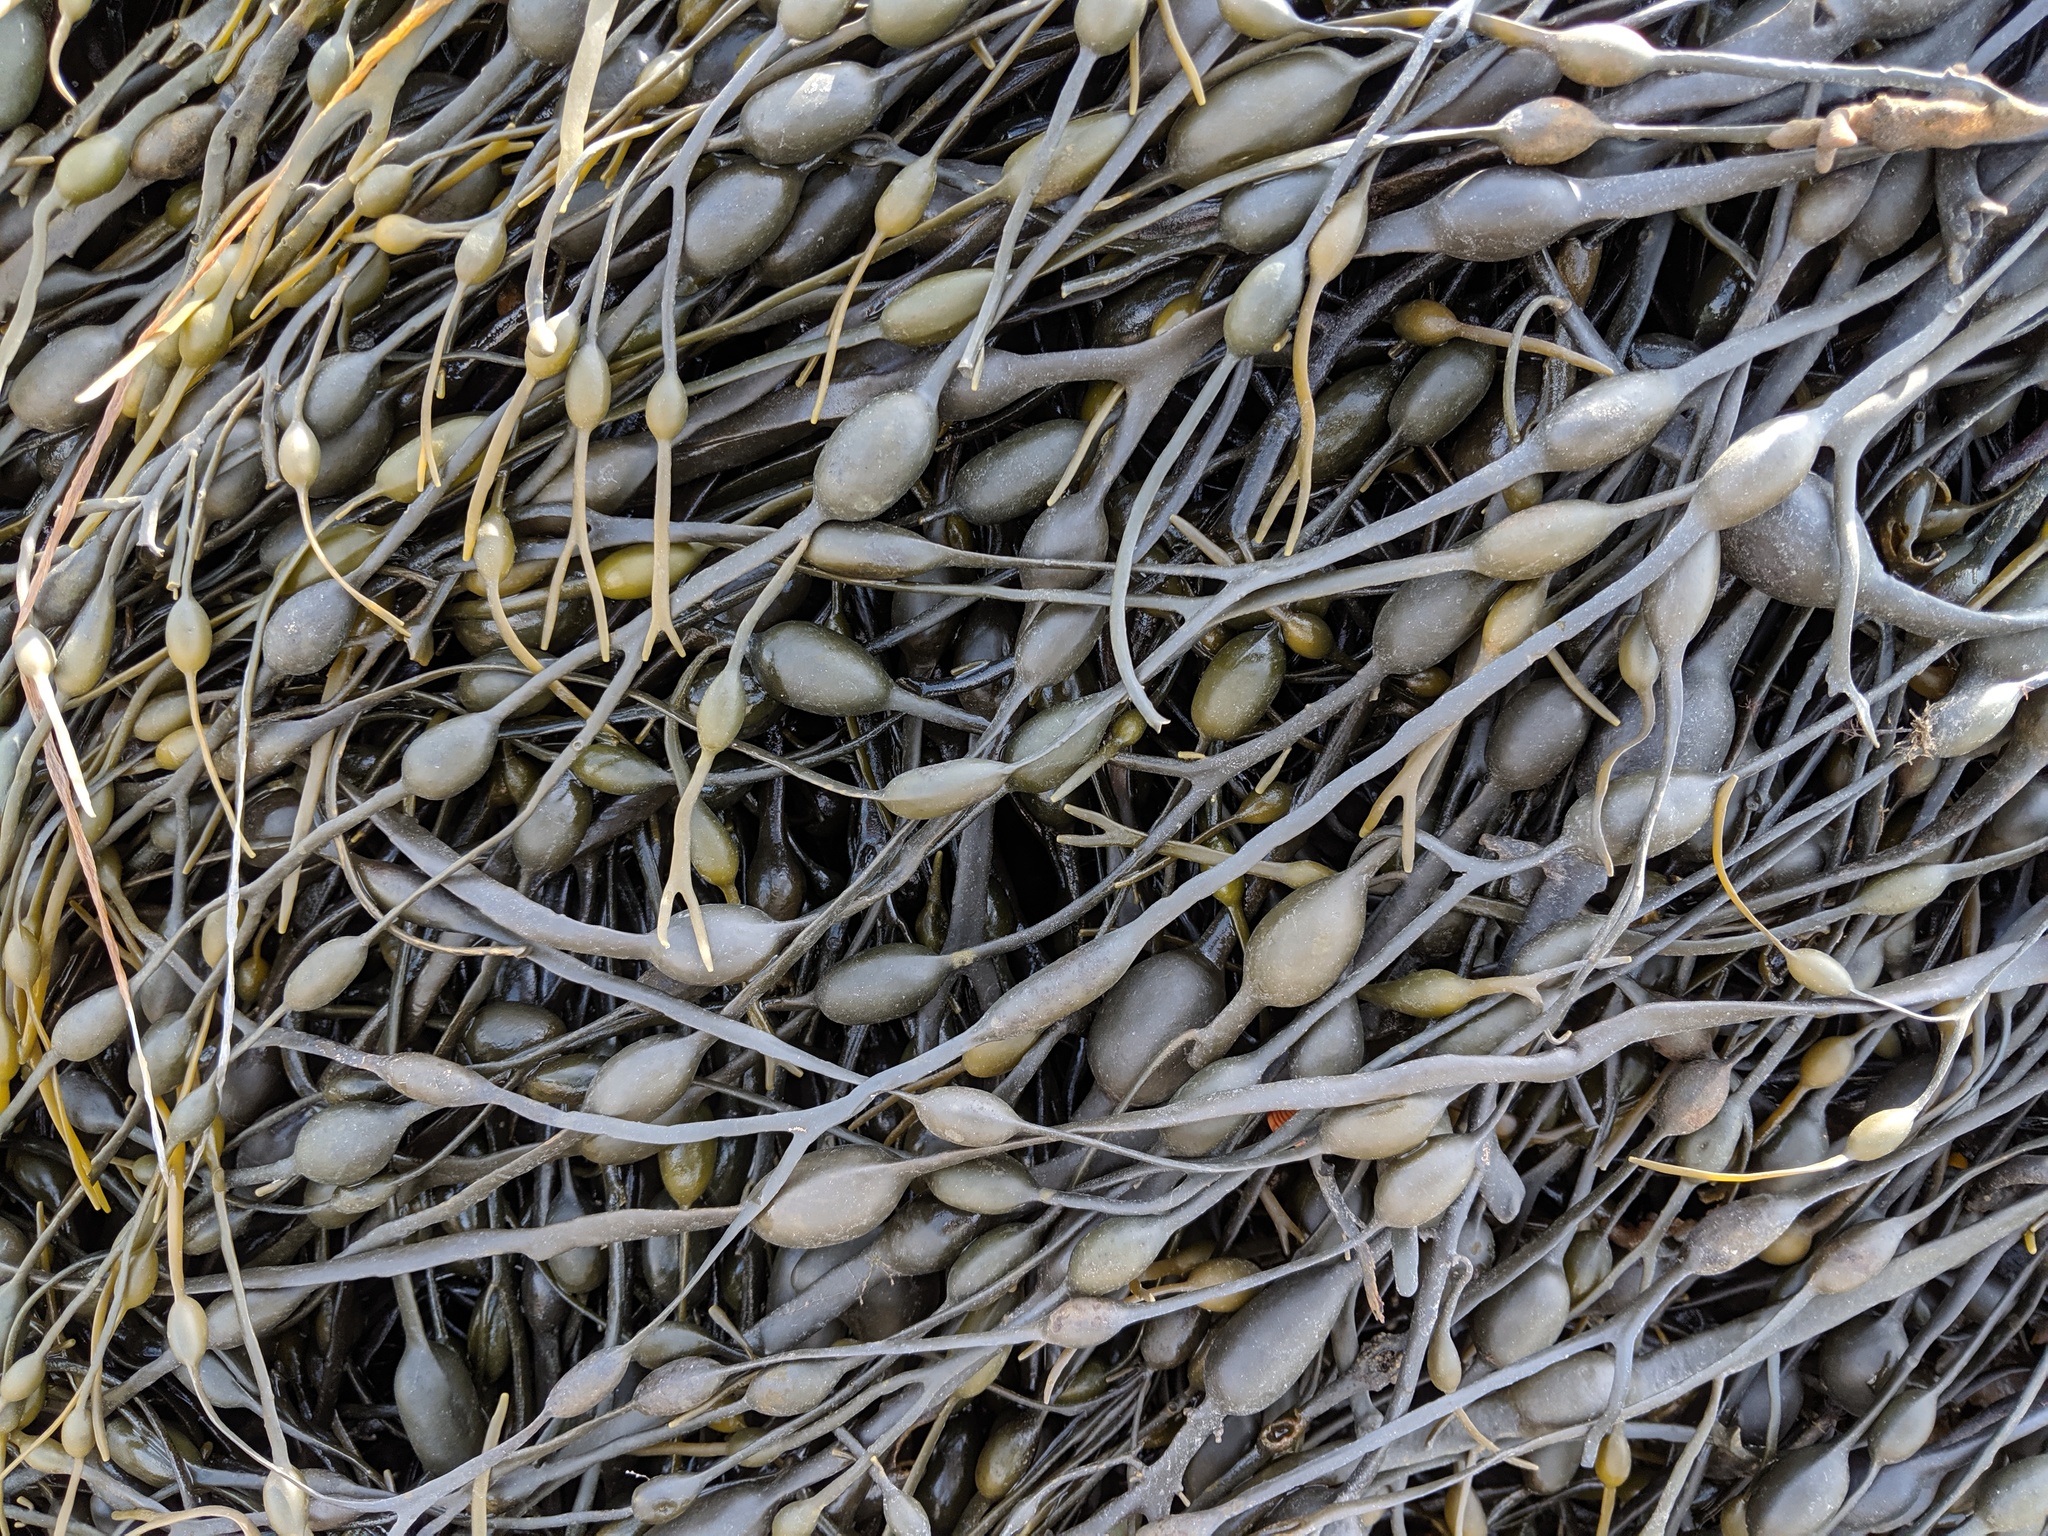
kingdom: Chromista
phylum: Ochrophyta
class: Phaeophyceae
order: Fucales
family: Fucaceae
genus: Ascophyllum
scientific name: Ascophyllum nodosum
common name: Knotted wrack
